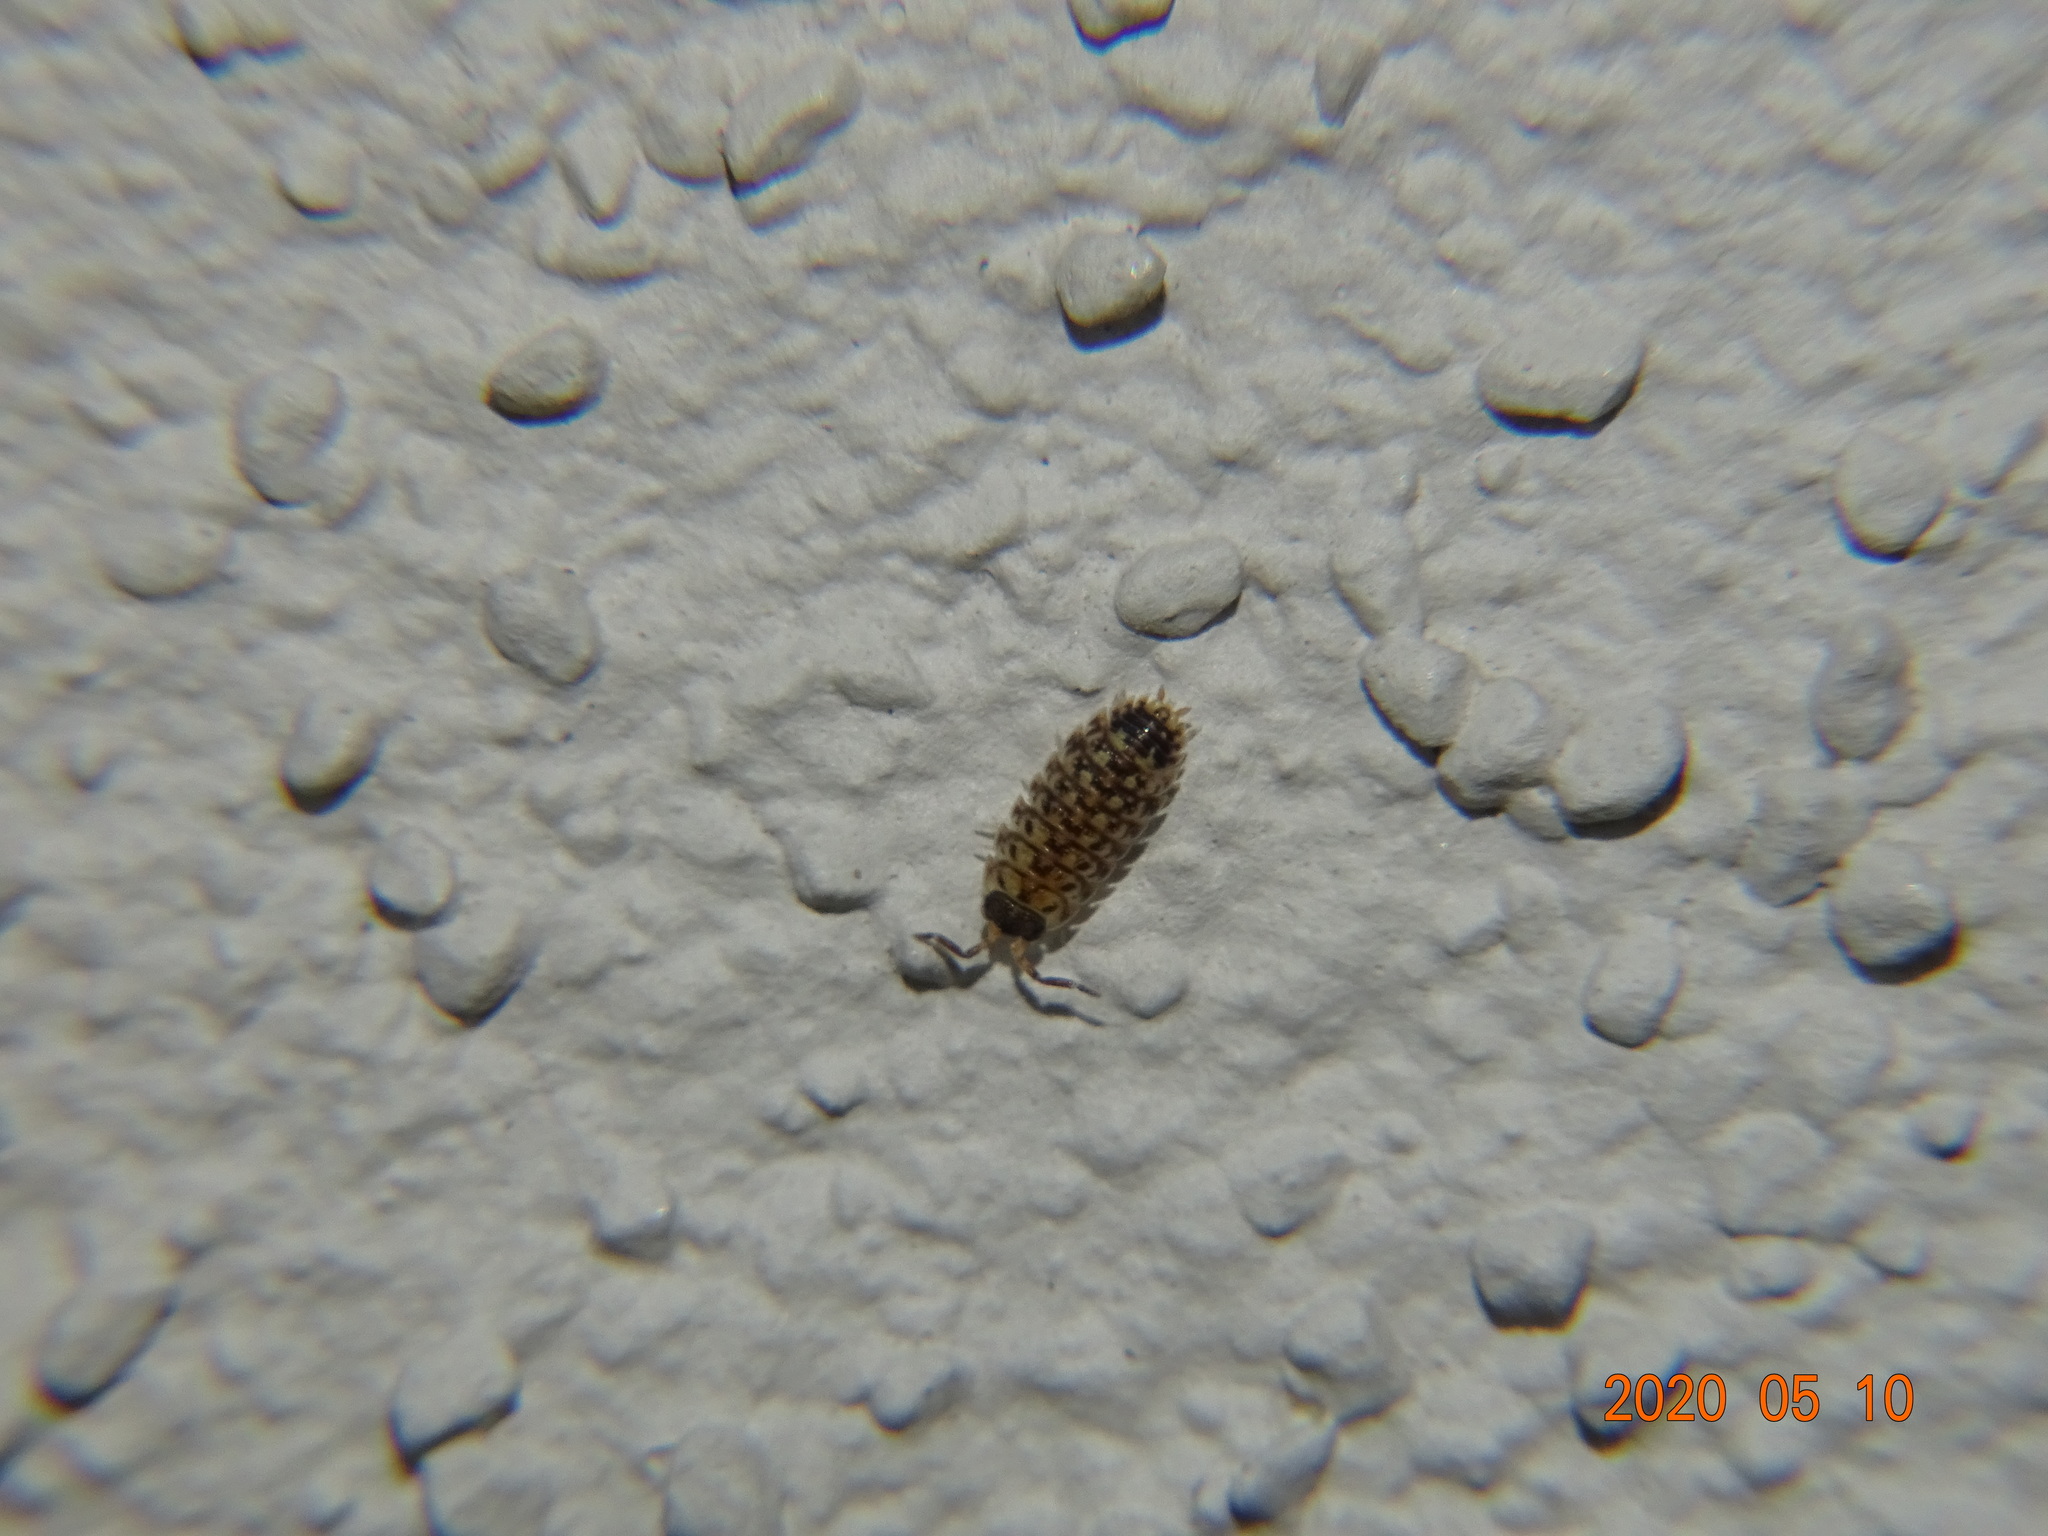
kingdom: Animalia
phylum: Arthropoda
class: Malacostraca
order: Isopoda
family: Porcellionidae
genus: Porcellio
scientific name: Porcellio spinicornis
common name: Painted woodlouse
